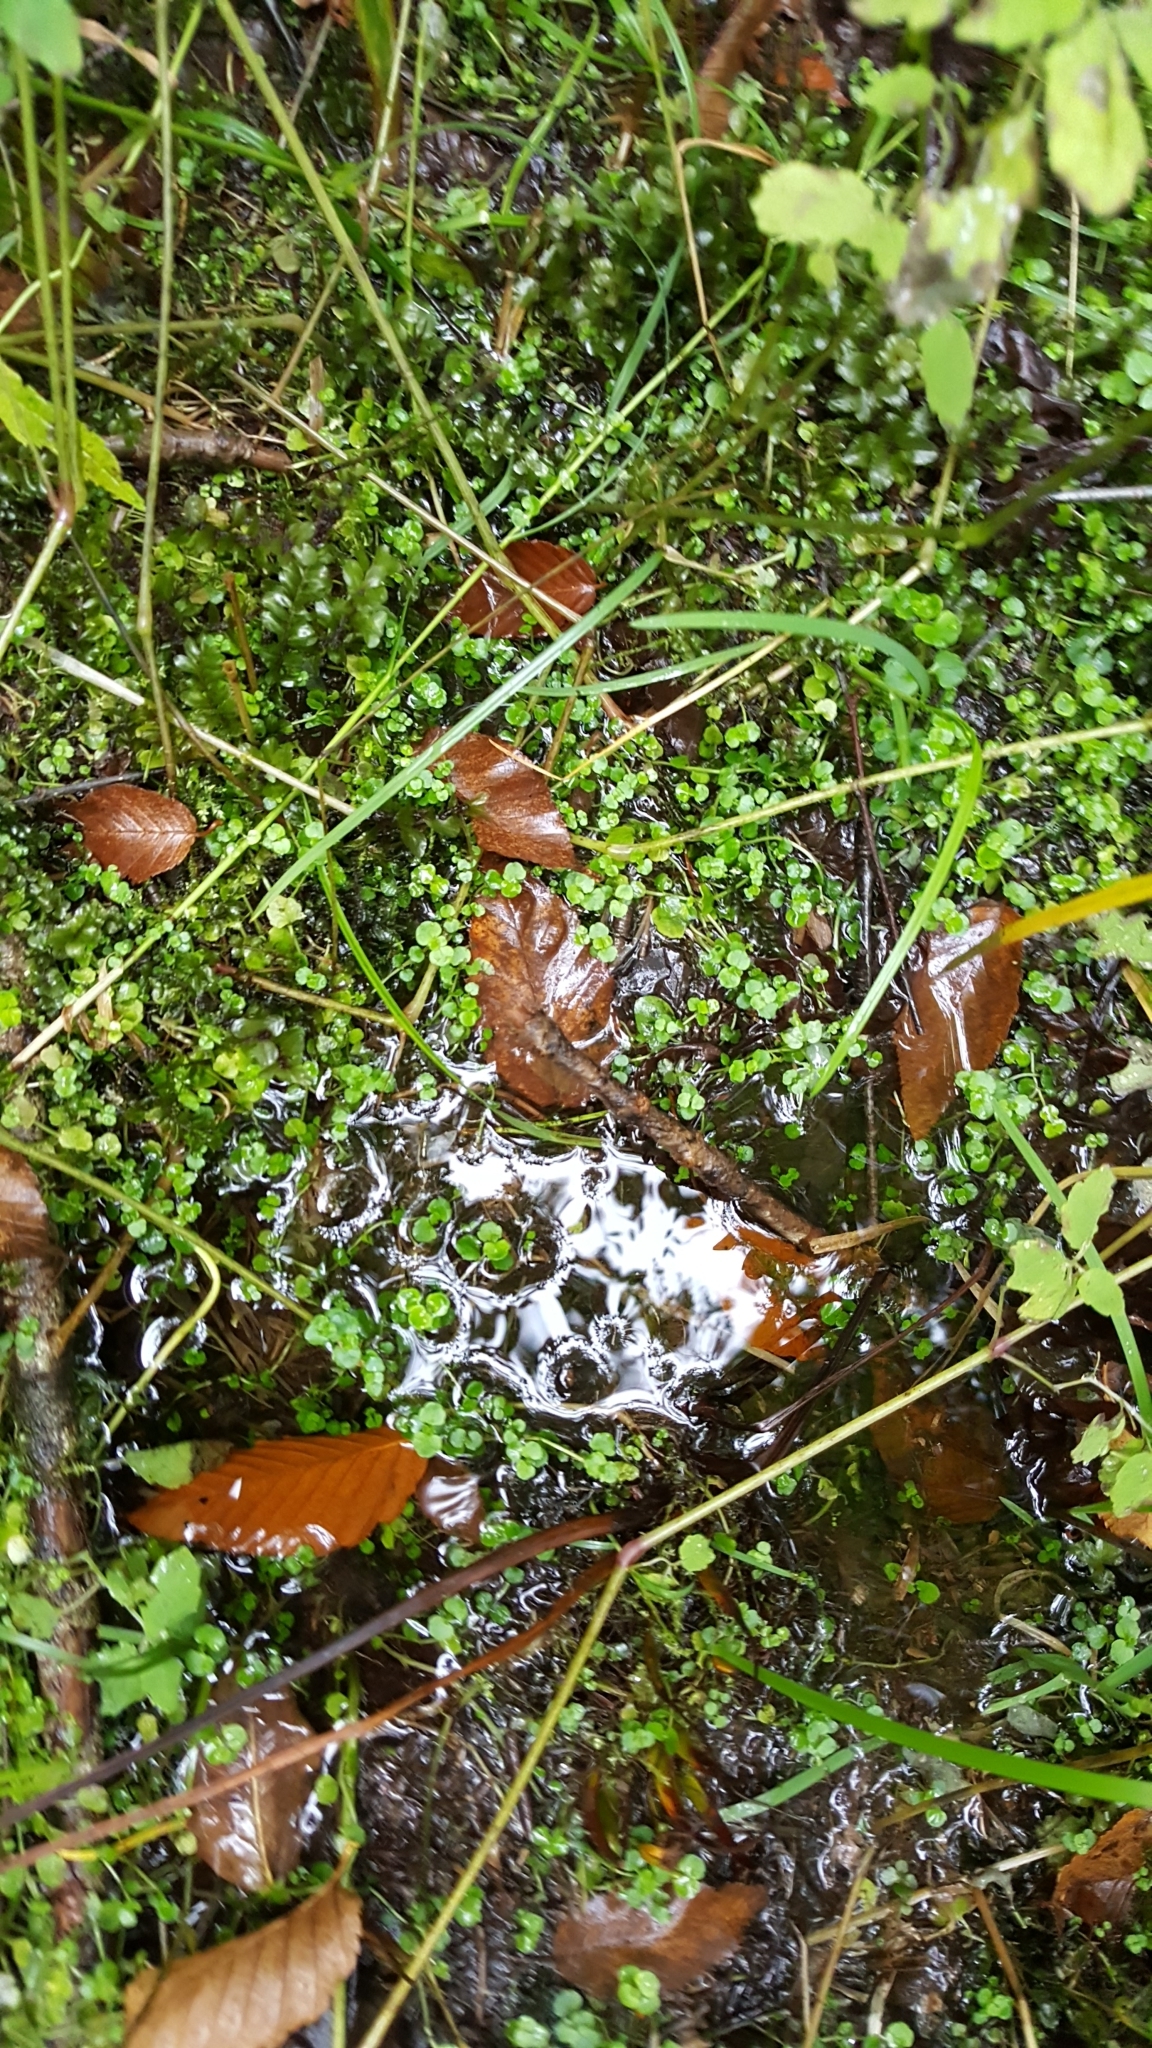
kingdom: Plantae
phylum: Tracheophyta
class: Magnoliopsida
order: Saxifragales
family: Saxifragaceae
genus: Chrysosplenium
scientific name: Chrysosplenium americanum
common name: American golden-saxifrage
